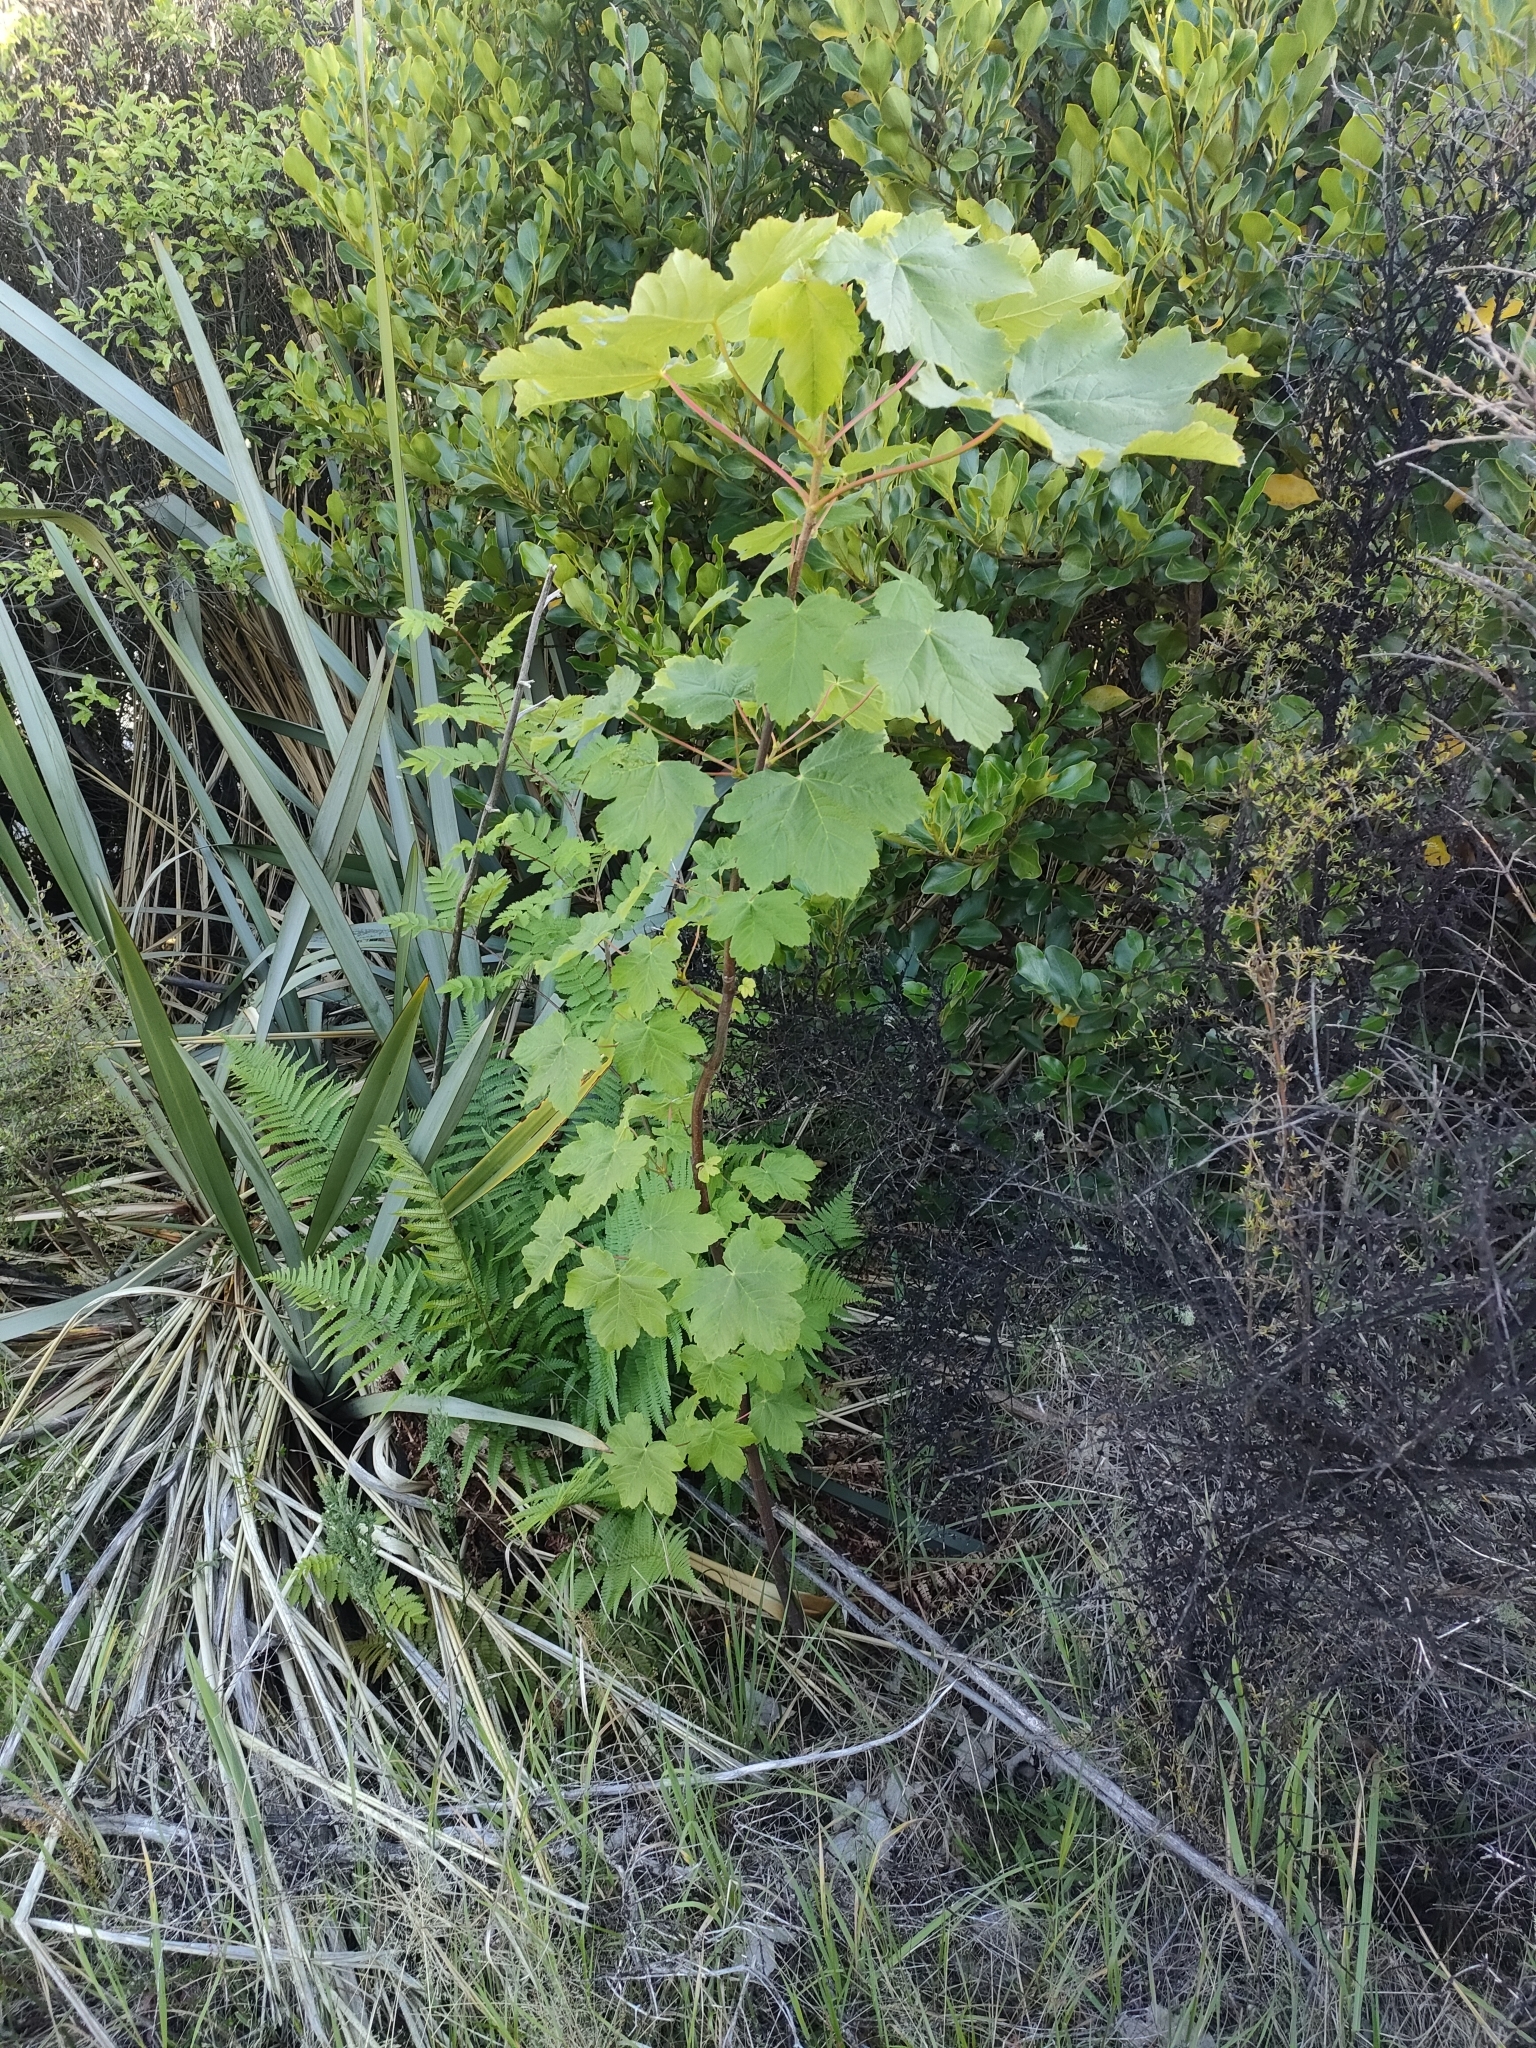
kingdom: Plantae
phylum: Tracheophyta
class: Magnoliopsida
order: Sapindales
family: Sapindaceae
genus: Acer
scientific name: Acer pseudoplatanus
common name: Sycamore
